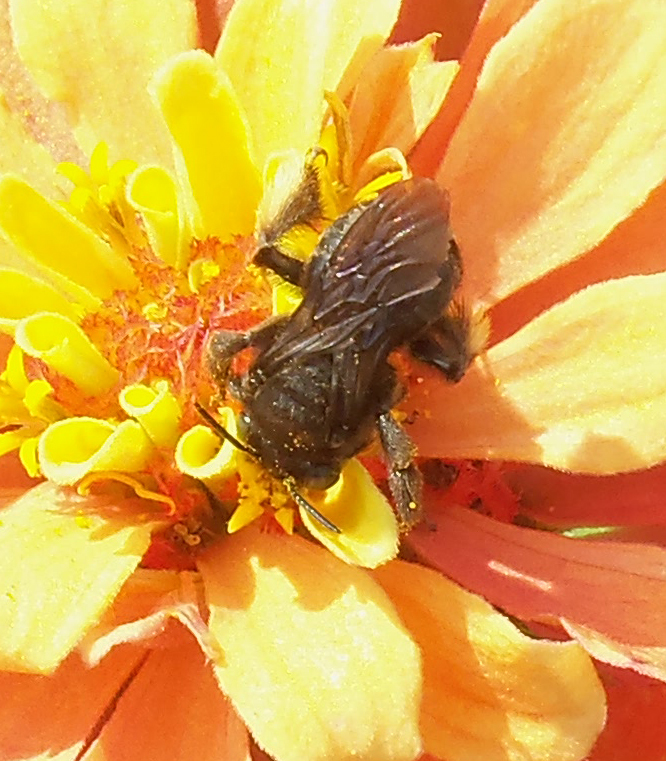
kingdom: Animalia
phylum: Arthropoda
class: Insecta
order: Hymenoptera
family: Apidae
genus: Melissodes
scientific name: Melissodes bimaculatus
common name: Two-spotted long-horned bee
